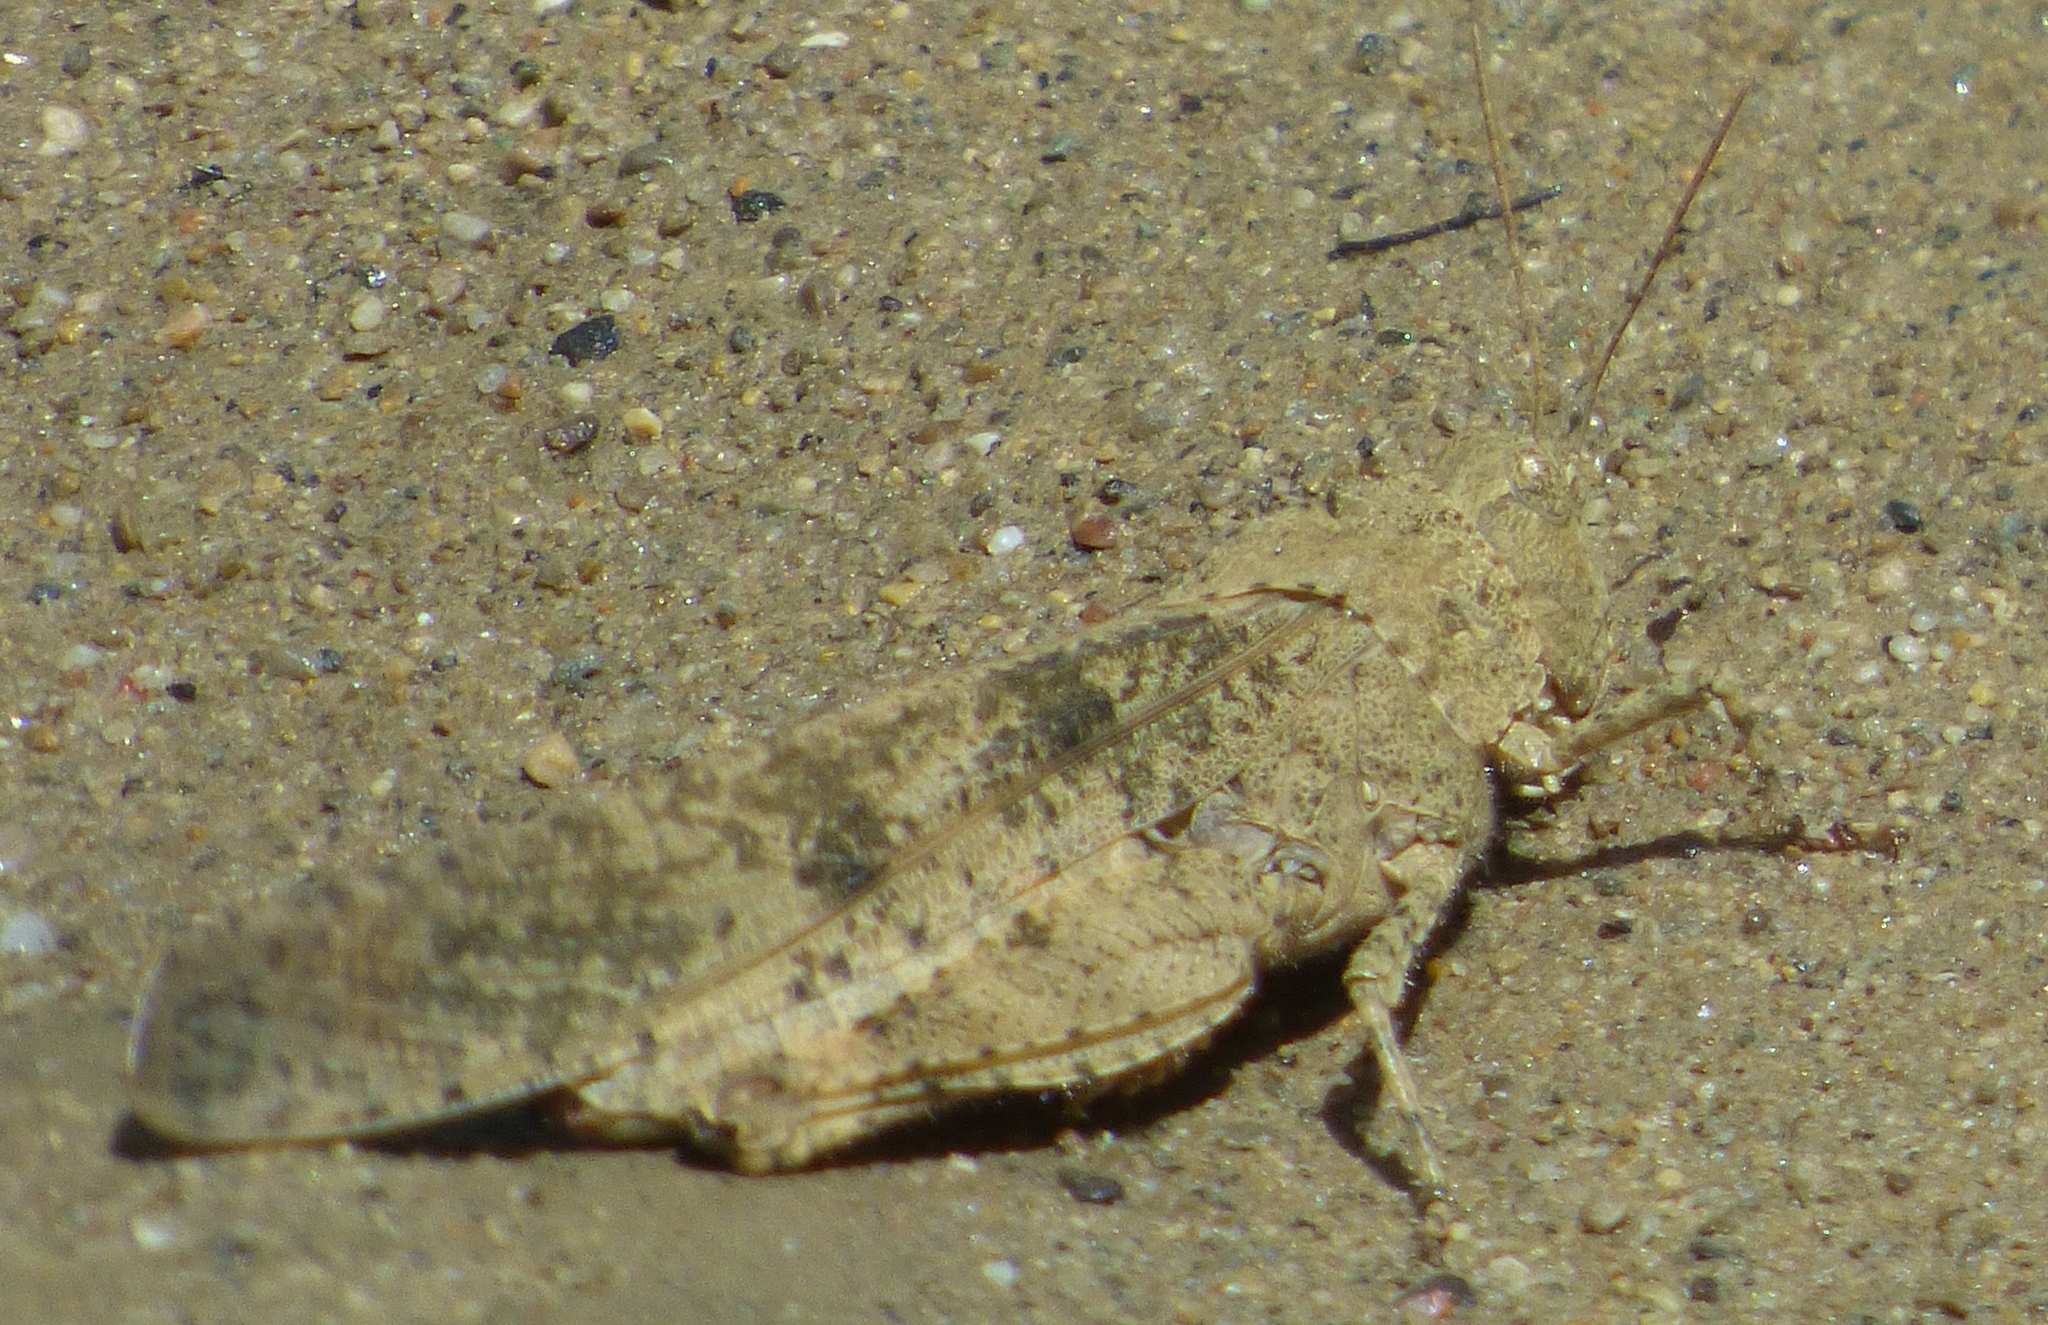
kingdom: Animalia
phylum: Arthropoda
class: Insecta
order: Orthoptera
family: Acrididae
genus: Dissosteira
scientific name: Dissosteira carolina
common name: Carolina grasshopper
